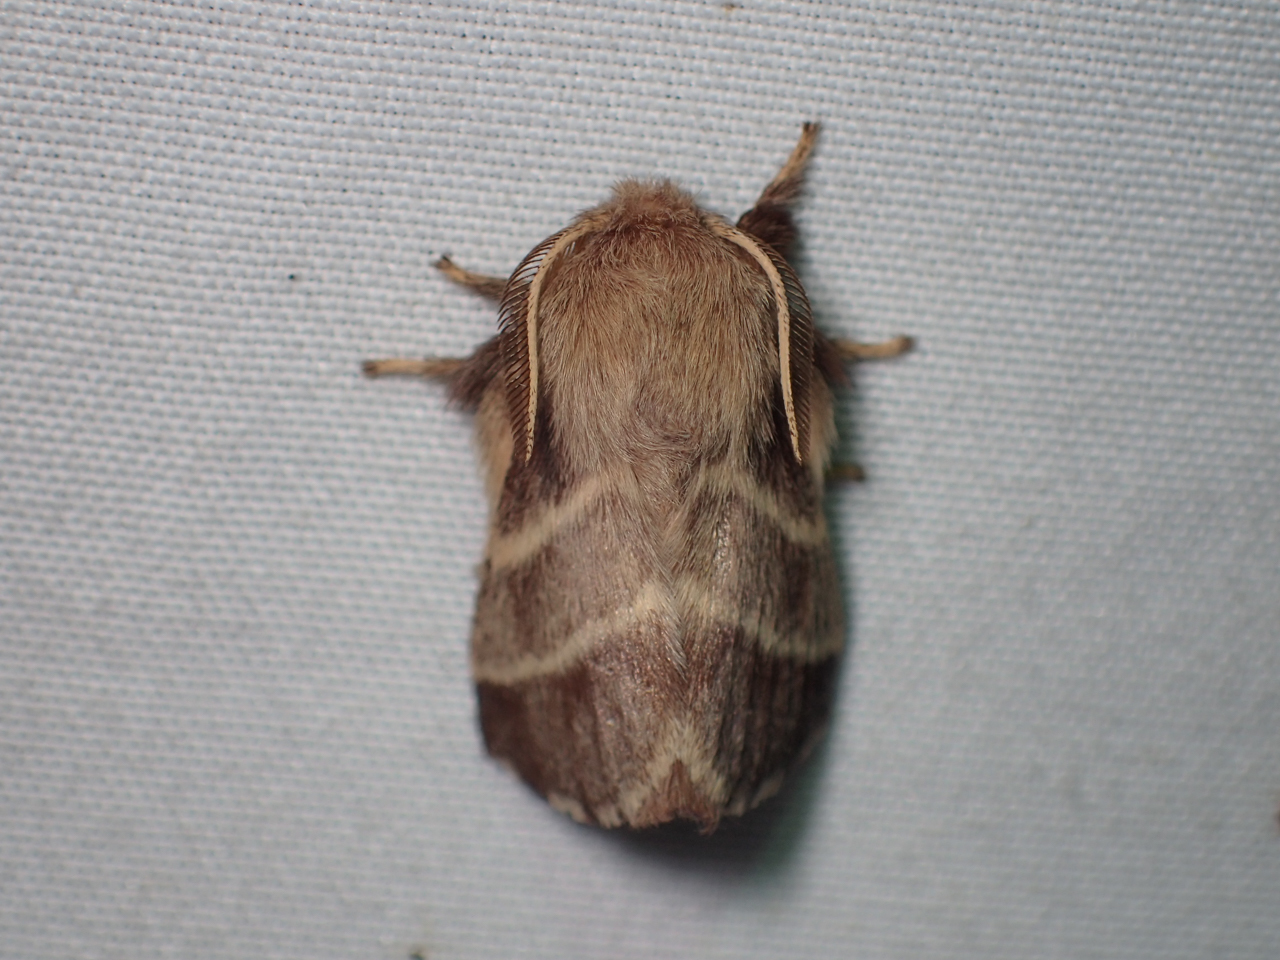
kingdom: Animalia
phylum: Arthropoda
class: Insecta
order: Lepidoptera
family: Lasiocampidae
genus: Malacosoma
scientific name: Malacosoma americana
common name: Eastern tent caterpillar moth
